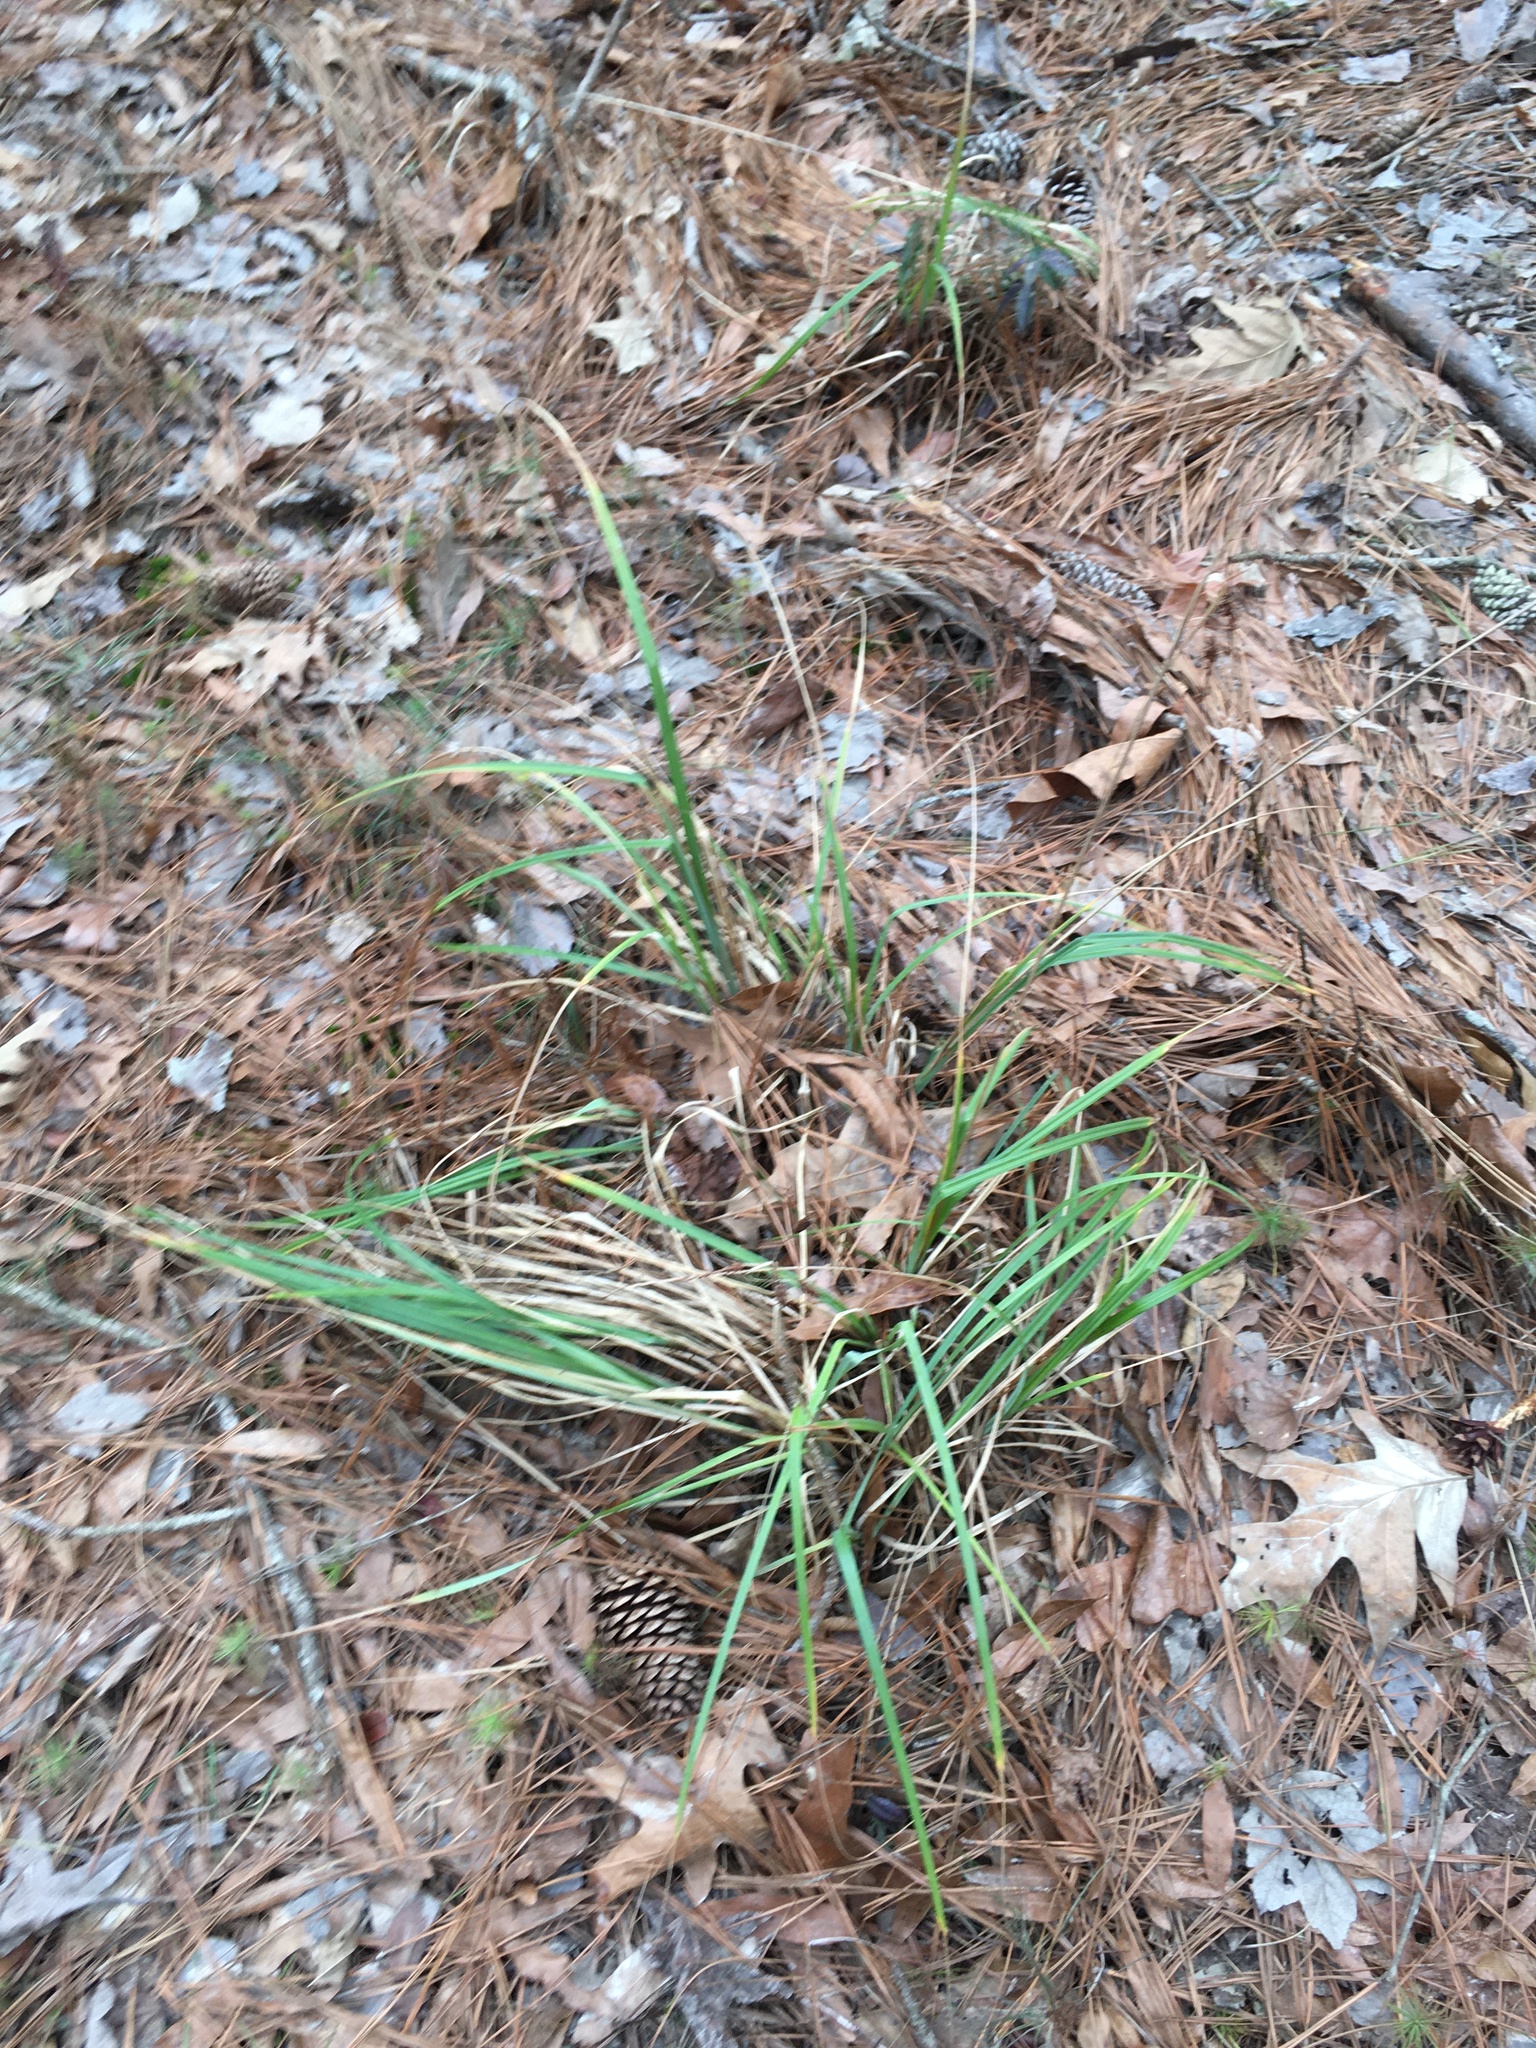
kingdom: Plantae
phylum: Tracheophyta
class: Liliopsida
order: Poales
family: Cyperaceae
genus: Carex
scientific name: Carex glaucescens
